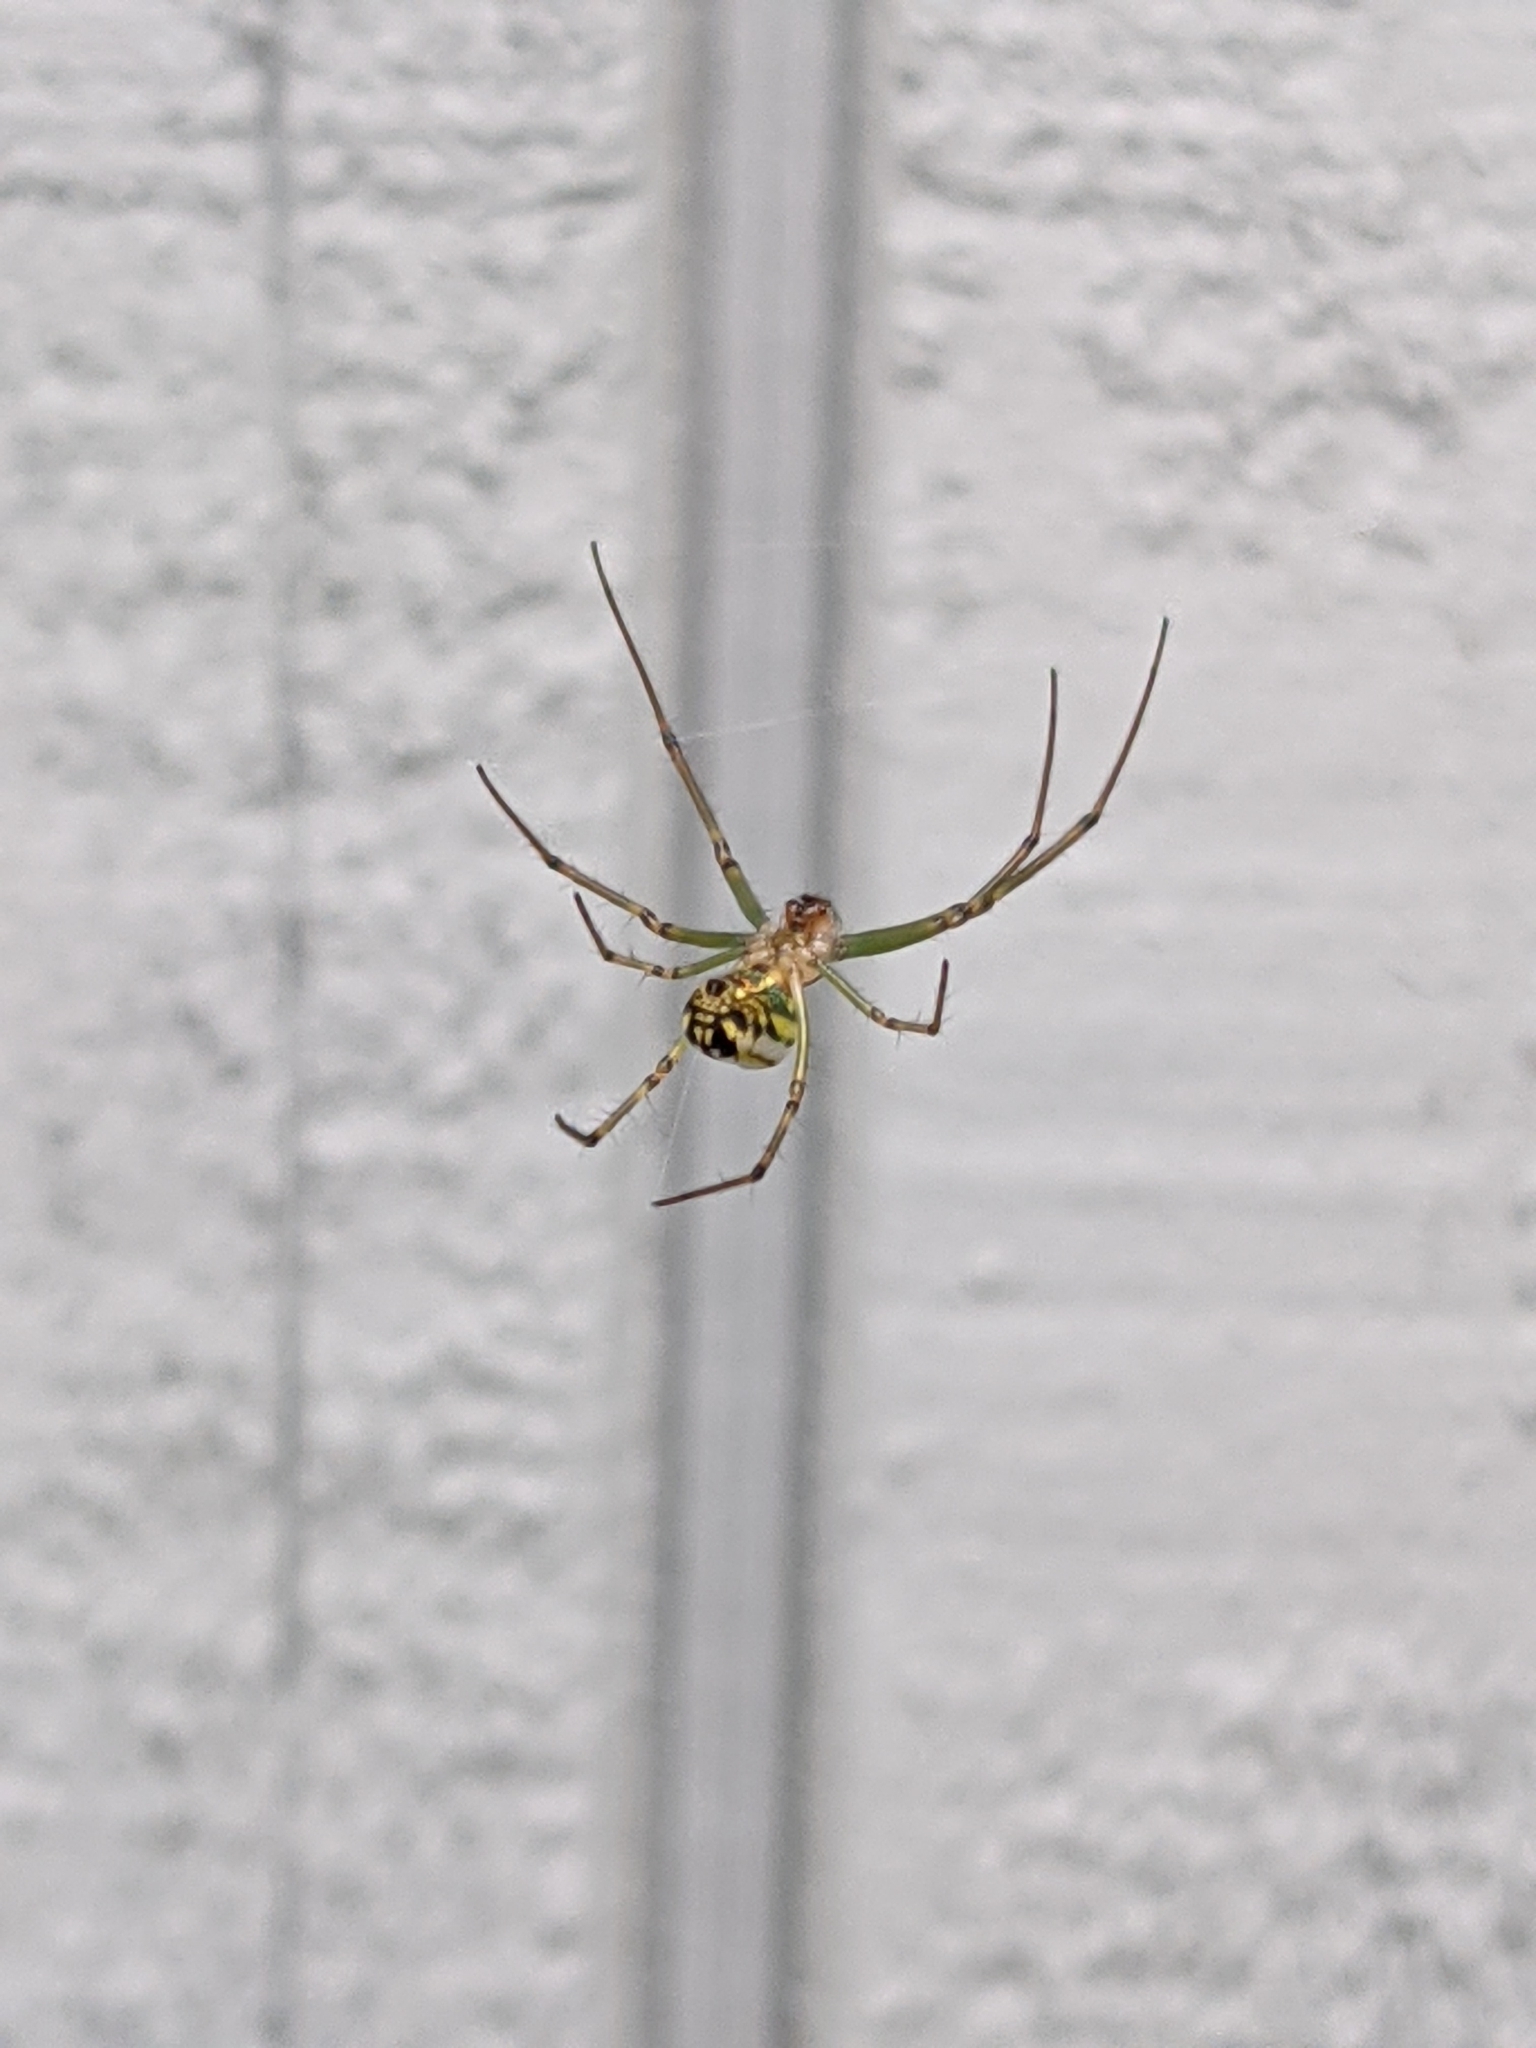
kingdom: Animalia
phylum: Arthropoda
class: Arachnida
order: Araneae
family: Tetragnathidae
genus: Leucauge
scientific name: Leucauge venusta
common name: Longjawed orb weavers
